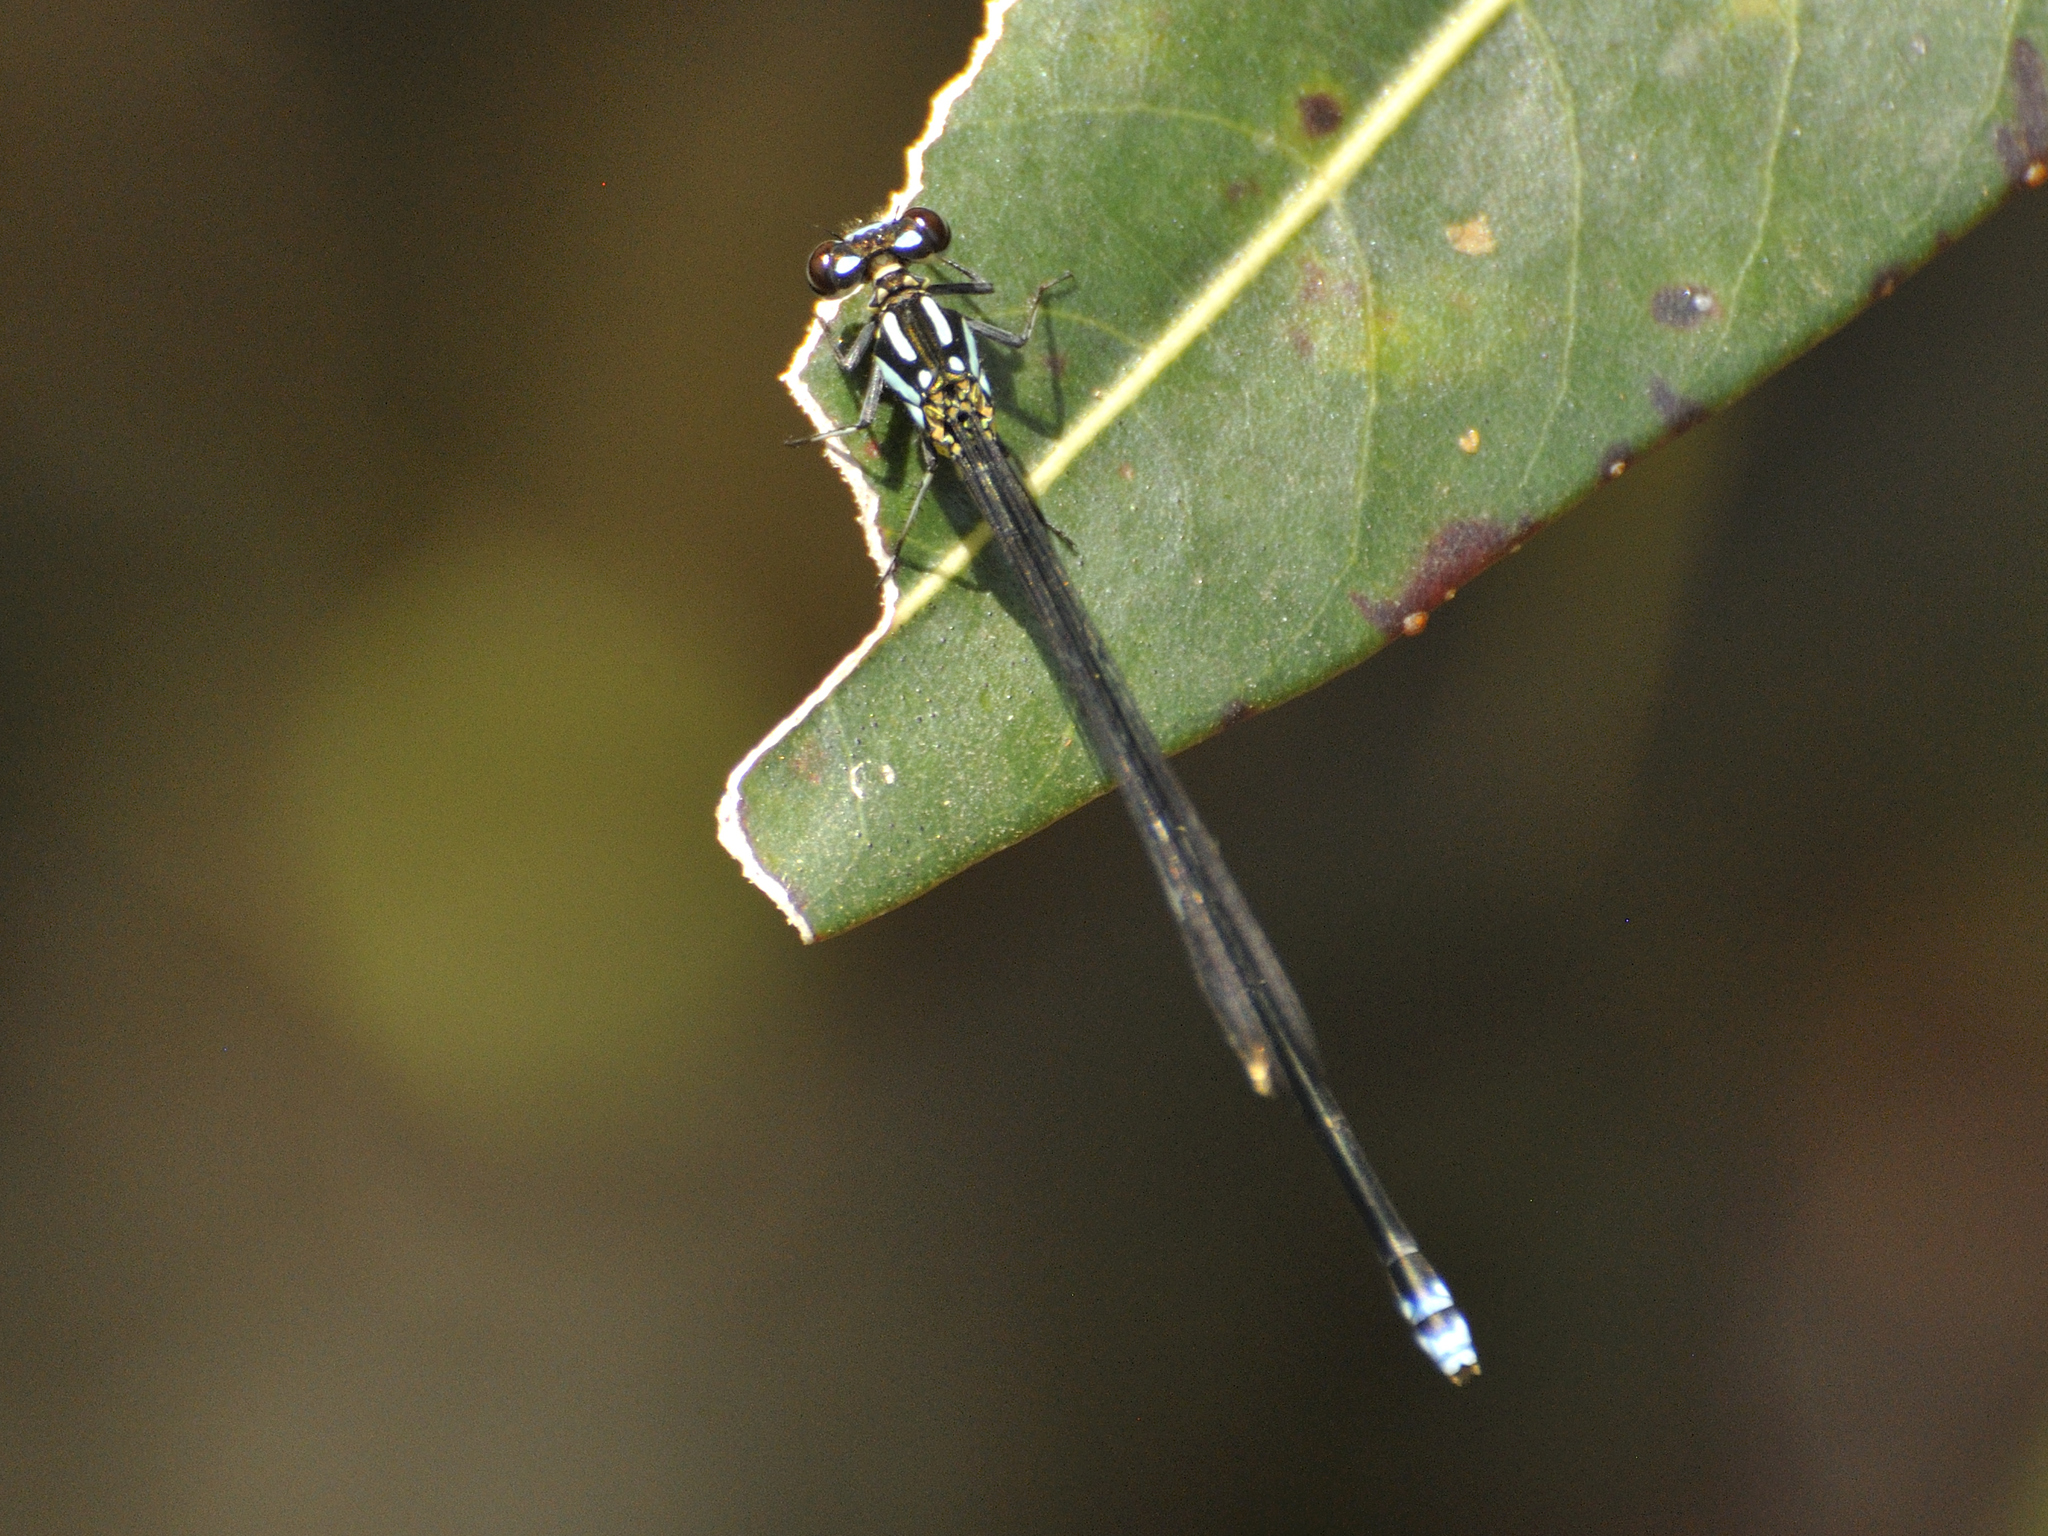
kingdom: Animalia
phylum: Arthropoda
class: Insecta
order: Odonata
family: Coenagrionidae
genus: Pseudagrion
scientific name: Pseudagrion renaudi
